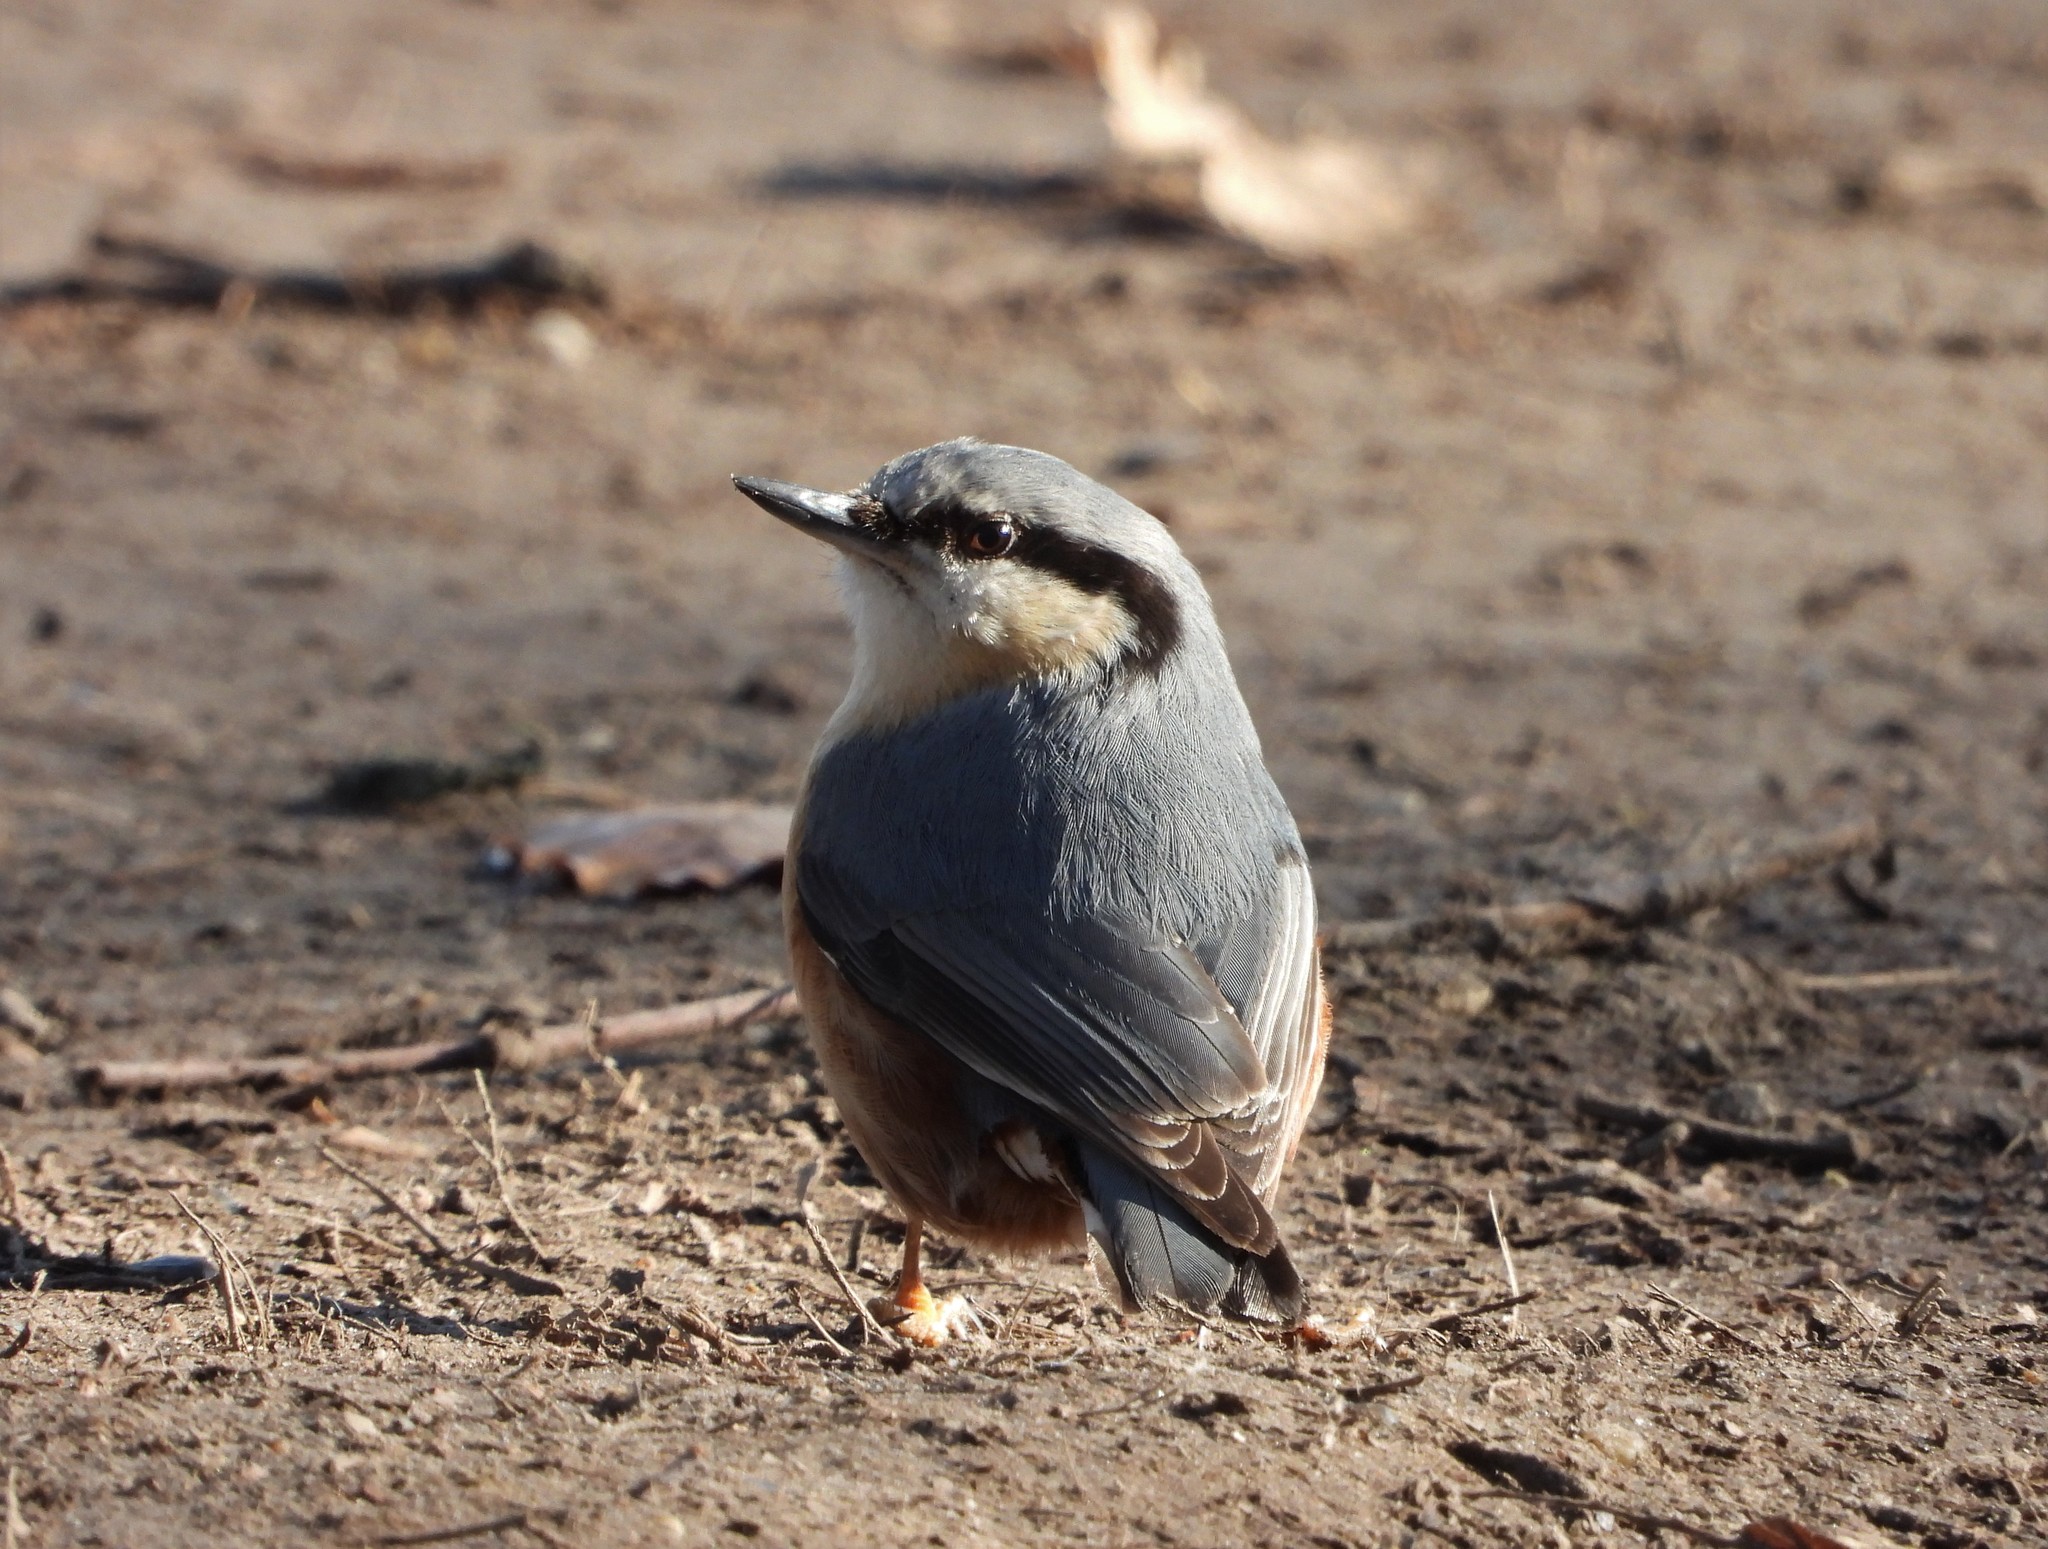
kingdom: Animalia
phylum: Chordata
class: Aves
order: Passeriformes
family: Sittidae
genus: Sitta
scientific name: Sitta europaea
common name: Eurasian nuthatch
